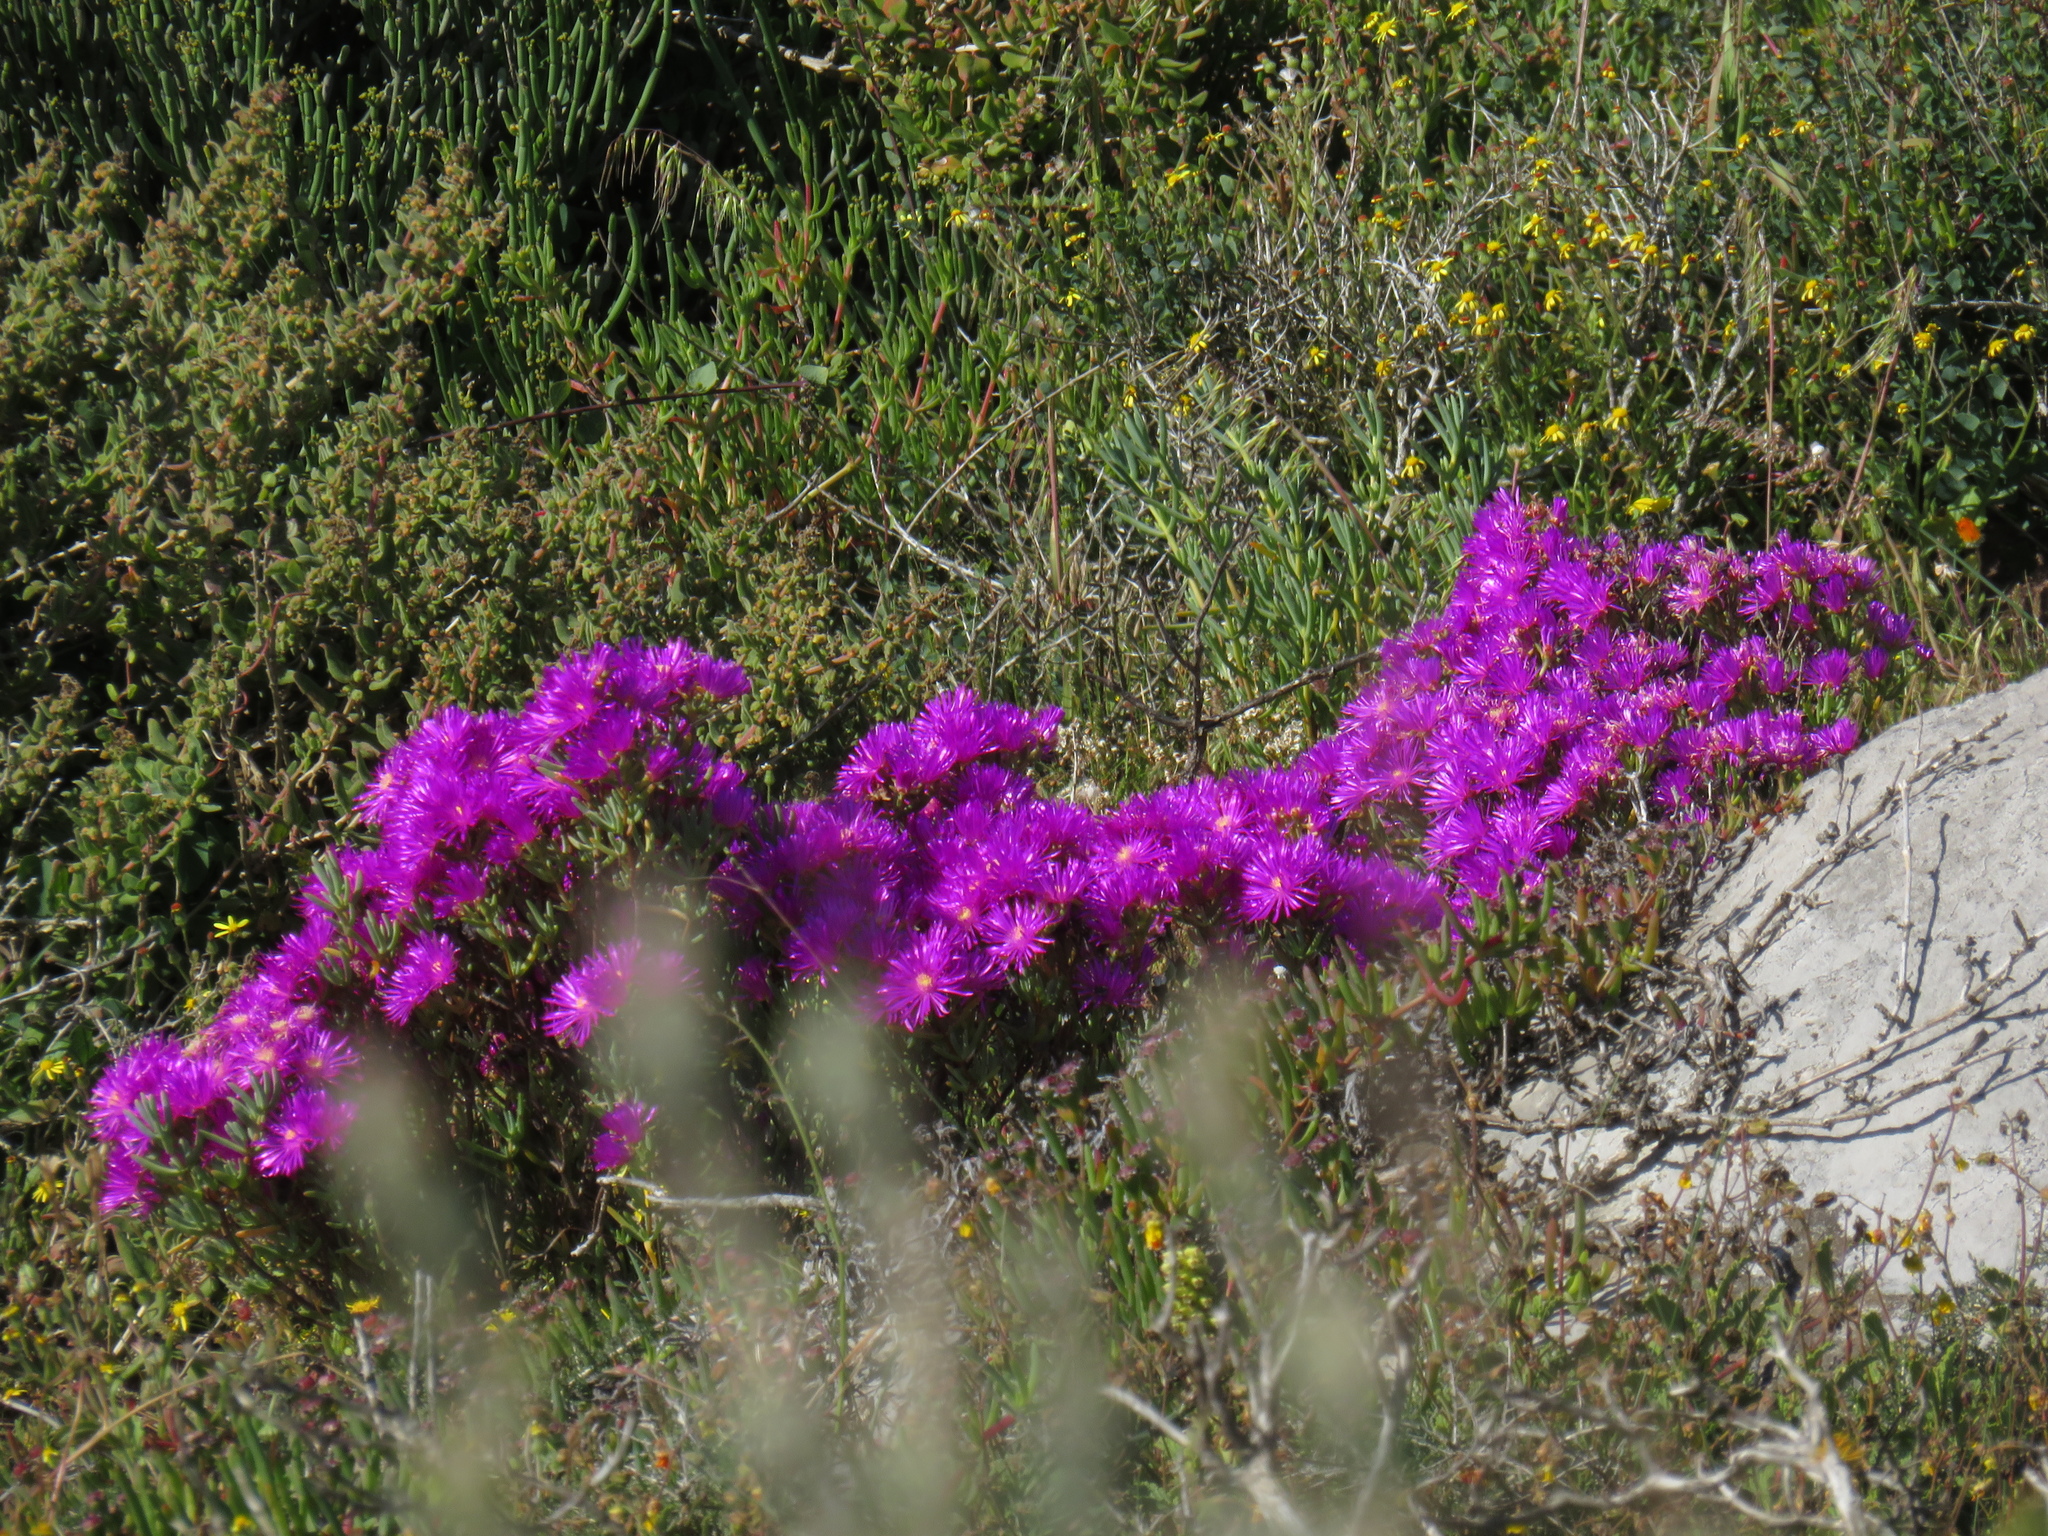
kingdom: Plantae
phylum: Tracheophyta
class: Magnoliopsida
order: Caryophyllales
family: Aizoaceae
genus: Lampranthus
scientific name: Lampranthus vernalis
